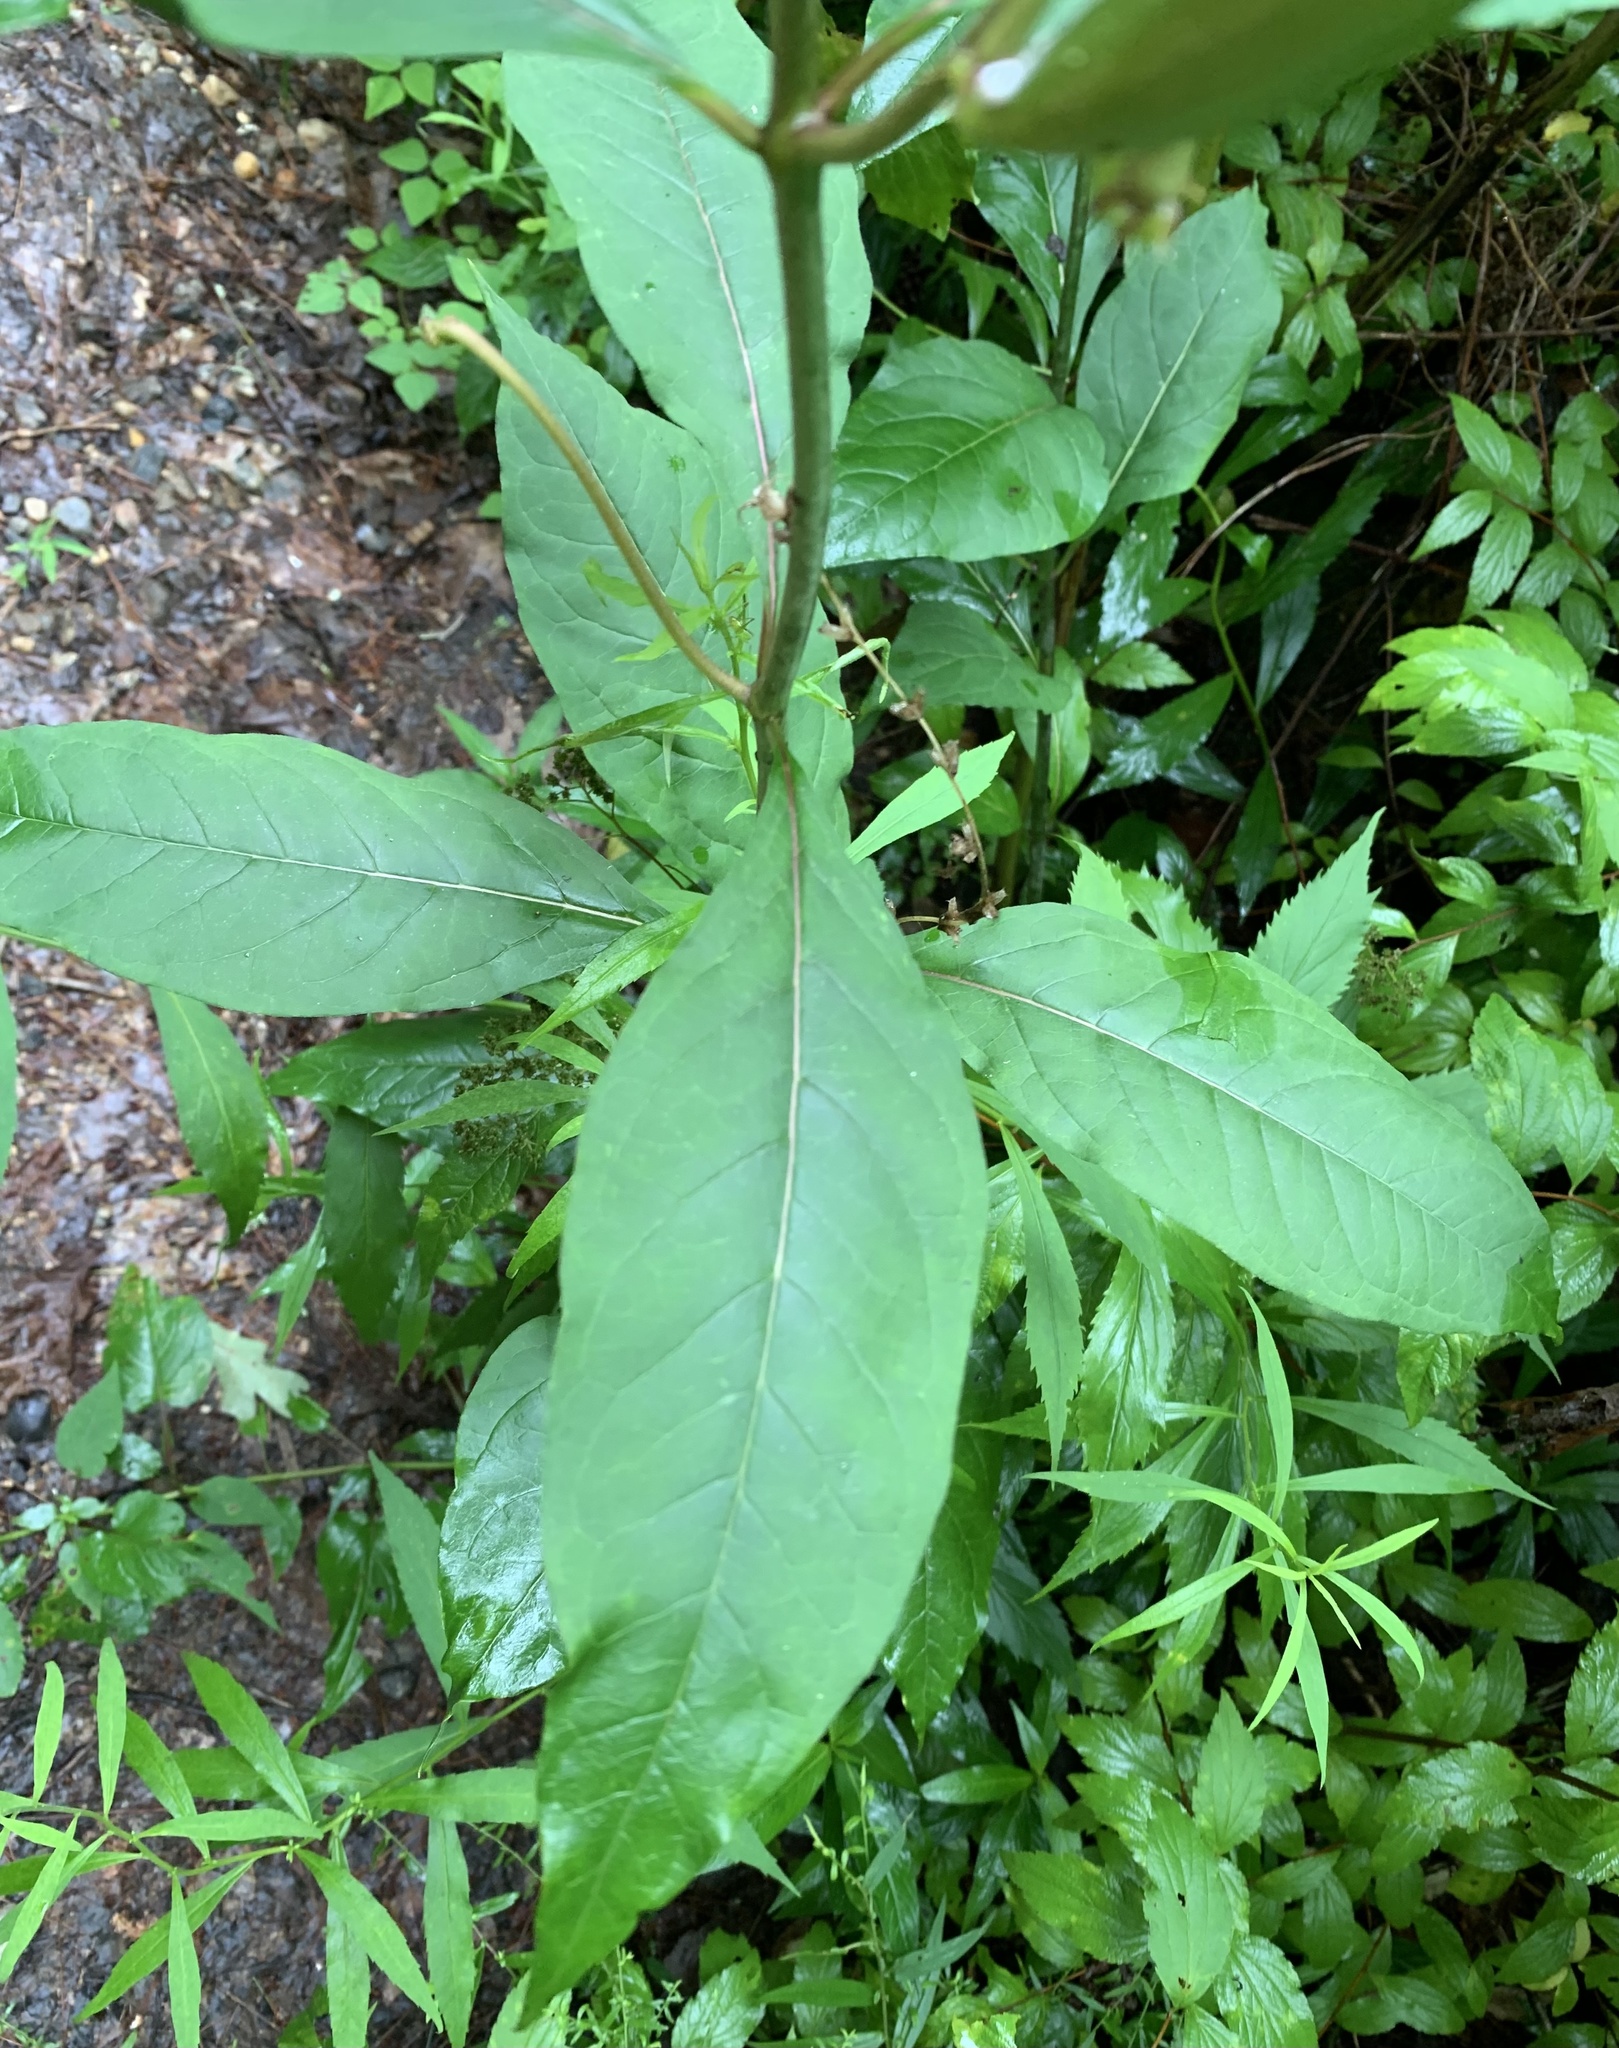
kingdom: Plantae
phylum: Tracheophyta
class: Magnoliopsida
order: Gentianales
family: Apocynaceae
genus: Asclepias
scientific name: Asclepias exaltata
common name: Poke milkweed
